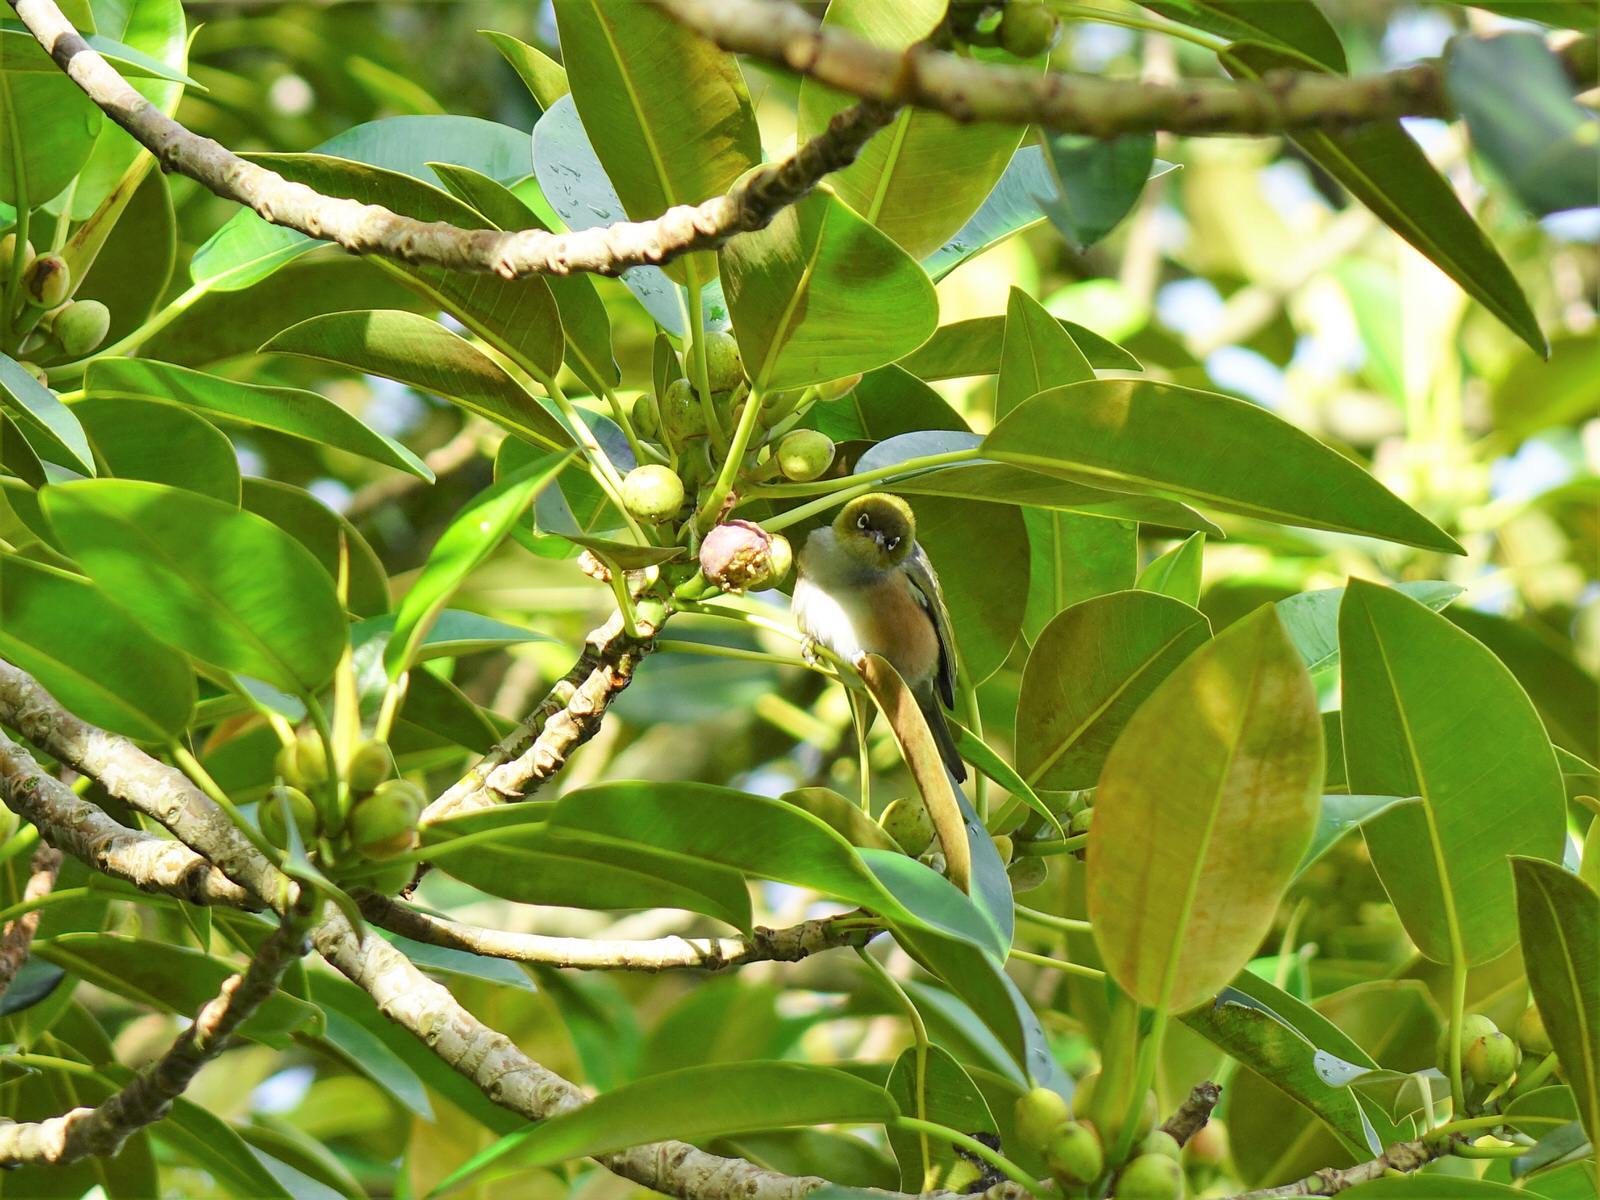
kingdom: Animalia
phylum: Chordata
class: Aves
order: Passeriformes
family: Zosteropidae
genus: Zosterops
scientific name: Zosterops lateralis
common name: Silvereye
